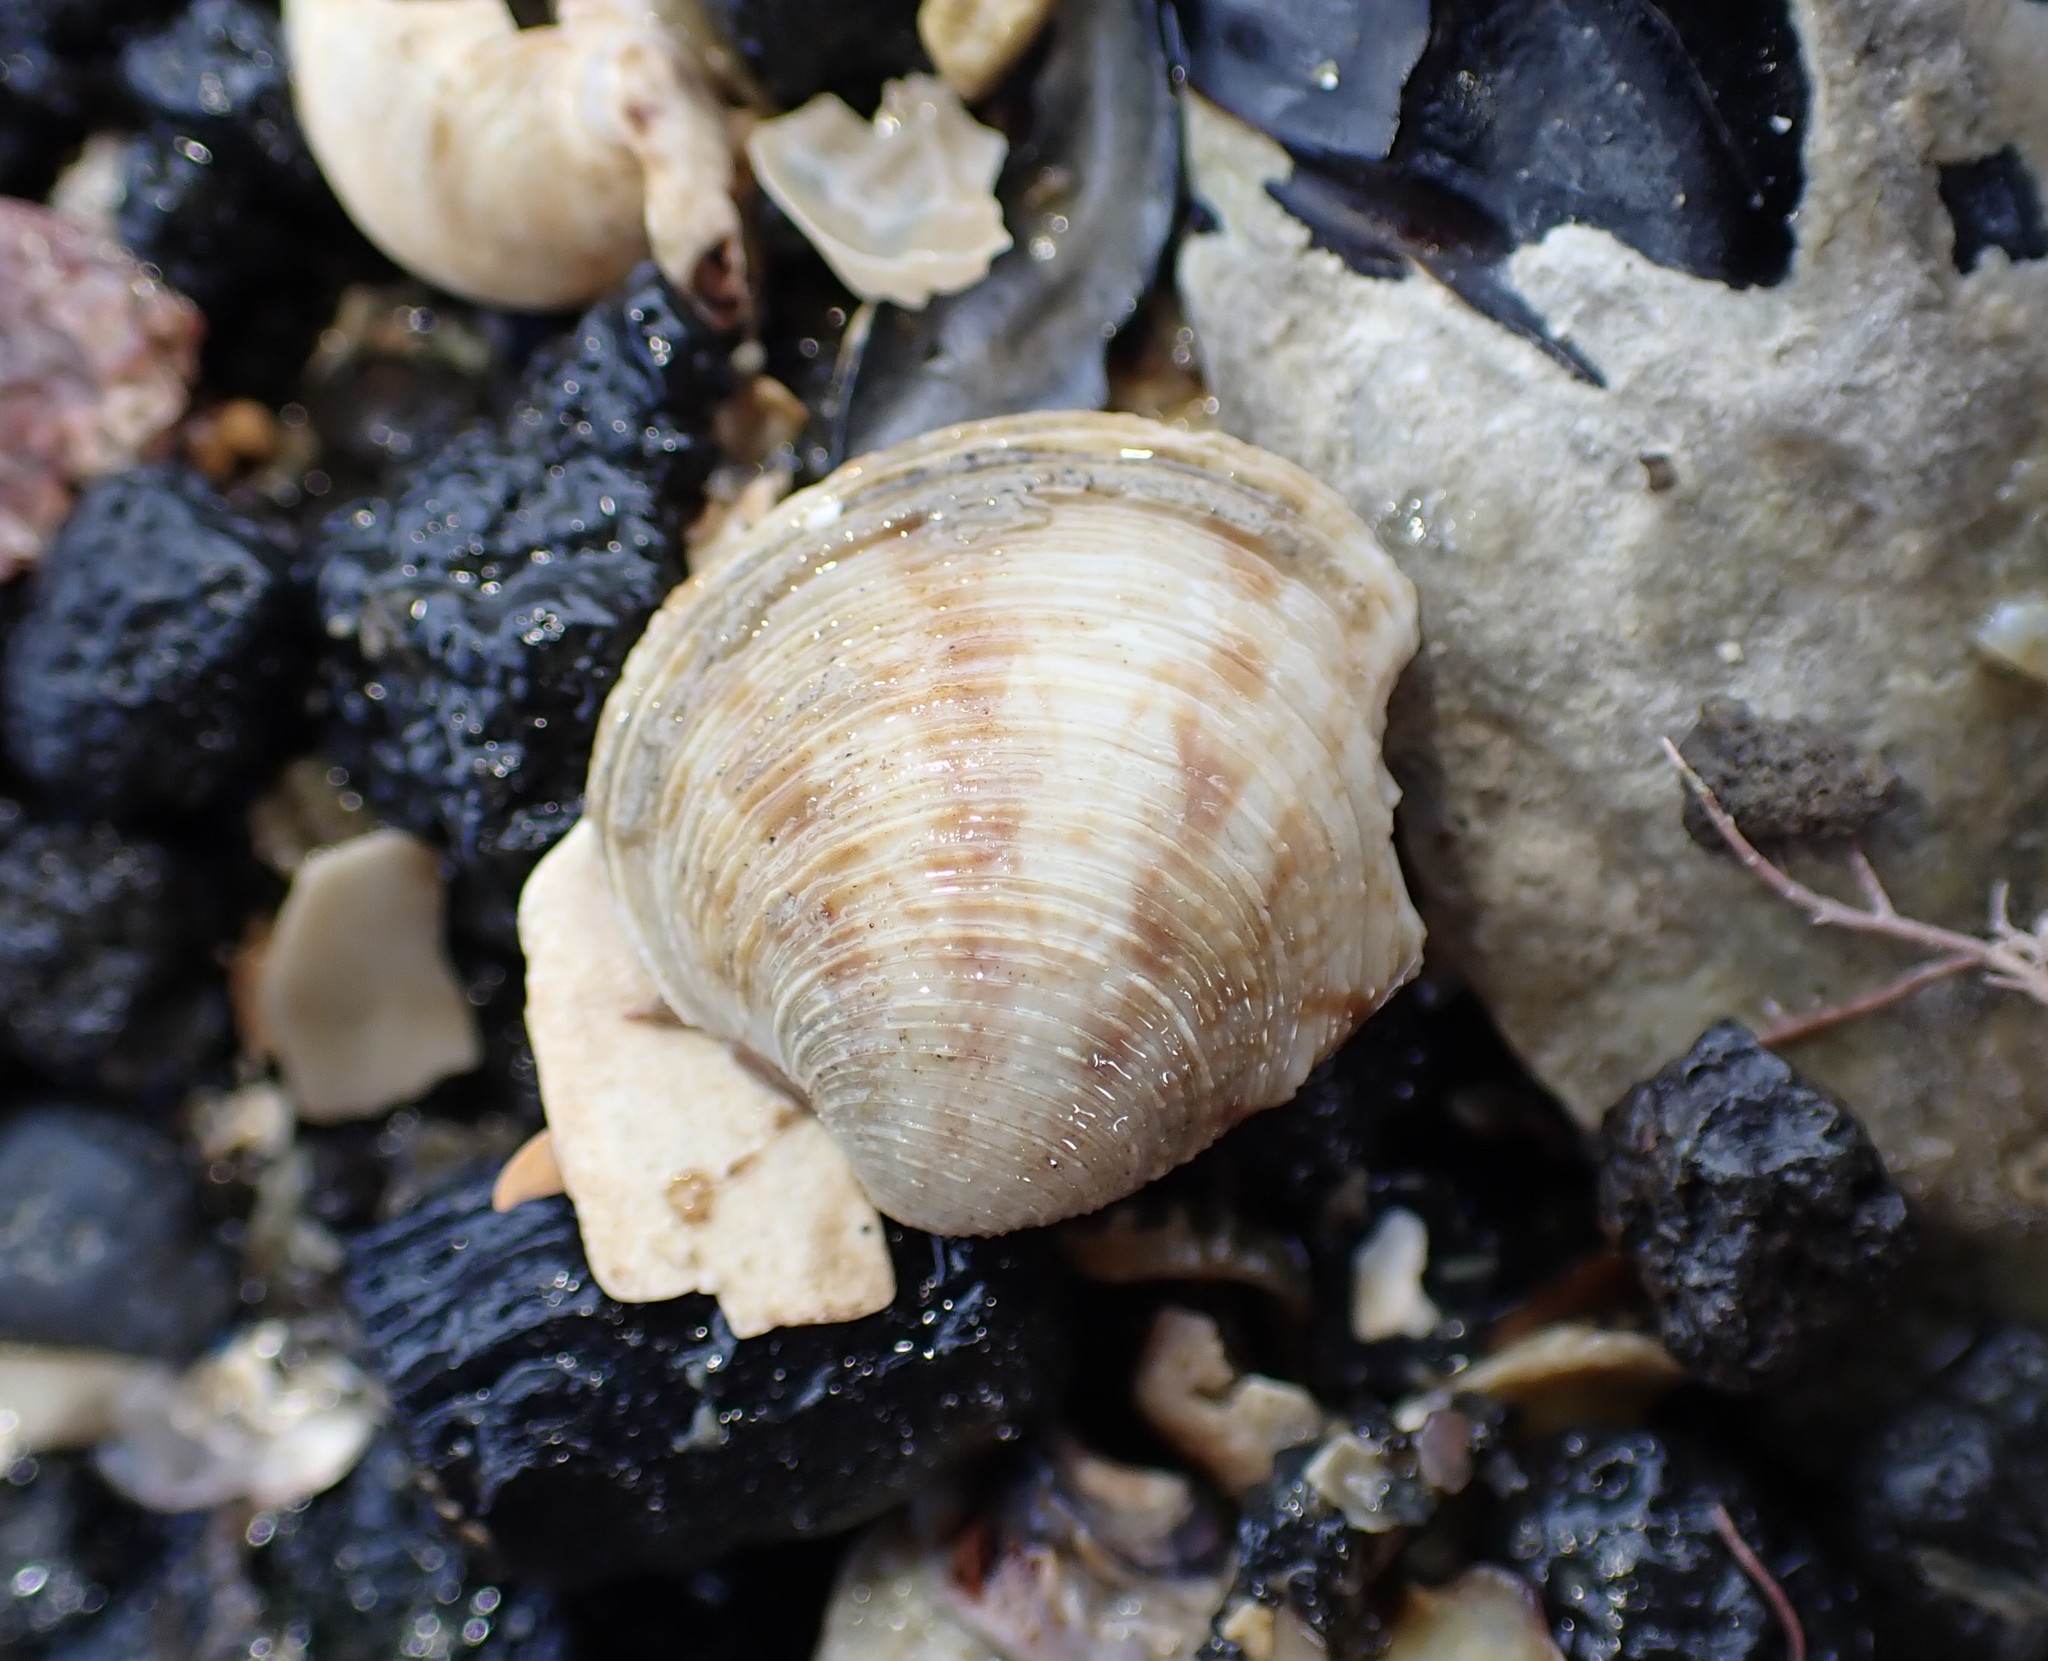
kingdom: Animalia
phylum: Mollusca
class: Bivalvia
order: Venerida
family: Veneridae
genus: Dosina
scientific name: Dosina mactracea
